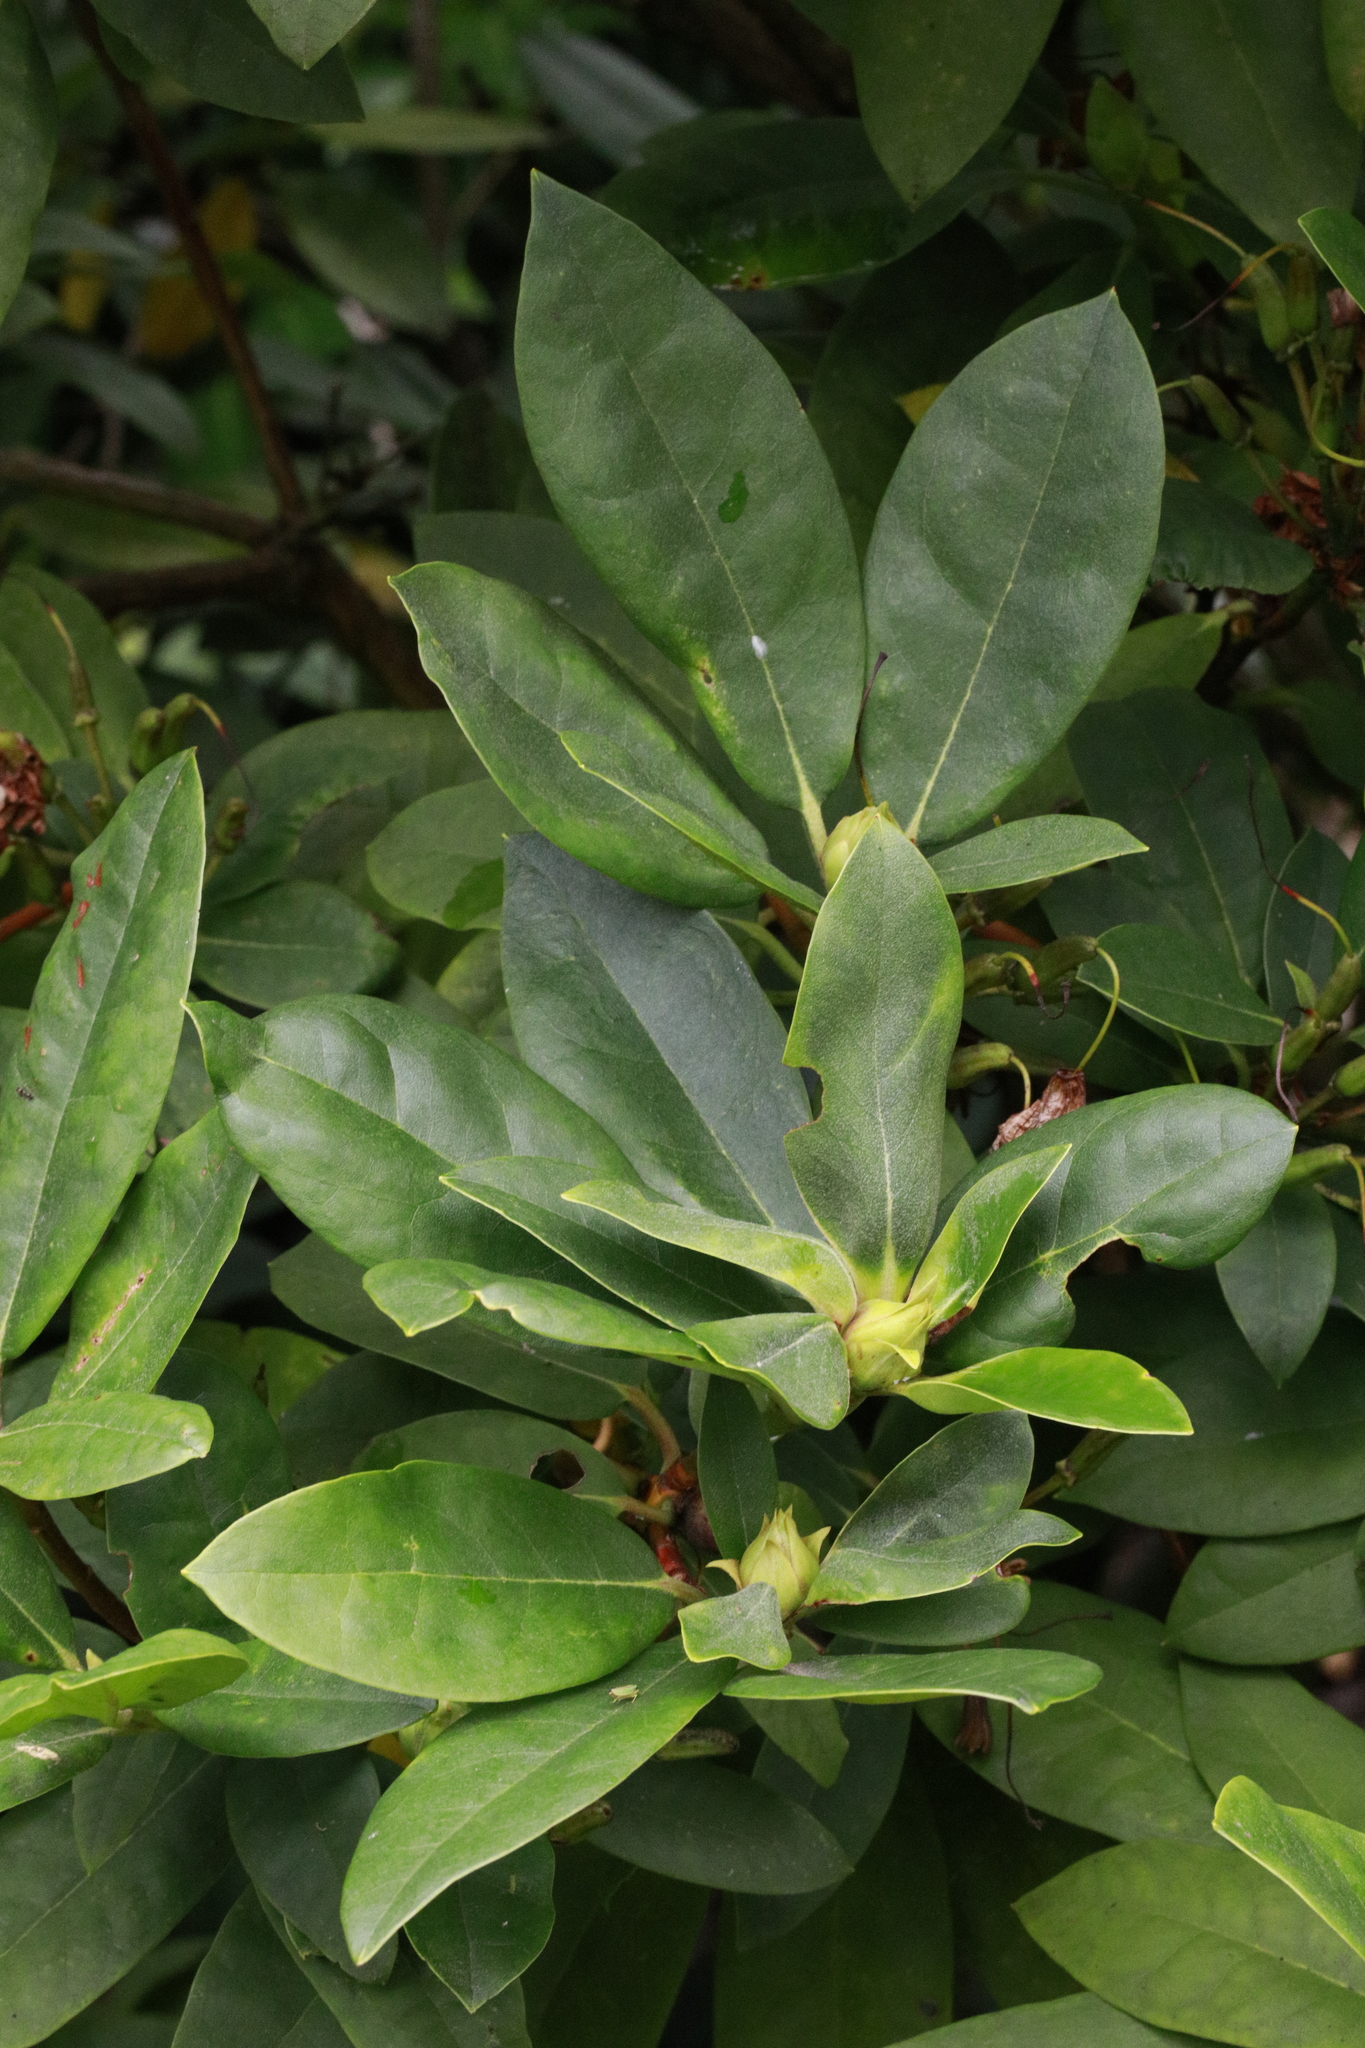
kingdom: Plantae
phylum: Tracheophyta
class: Magnoliopsida
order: Ericales
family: Ericaceae
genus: Rhododendron
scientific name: Rhododendron ponticum
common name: Rhododendron
